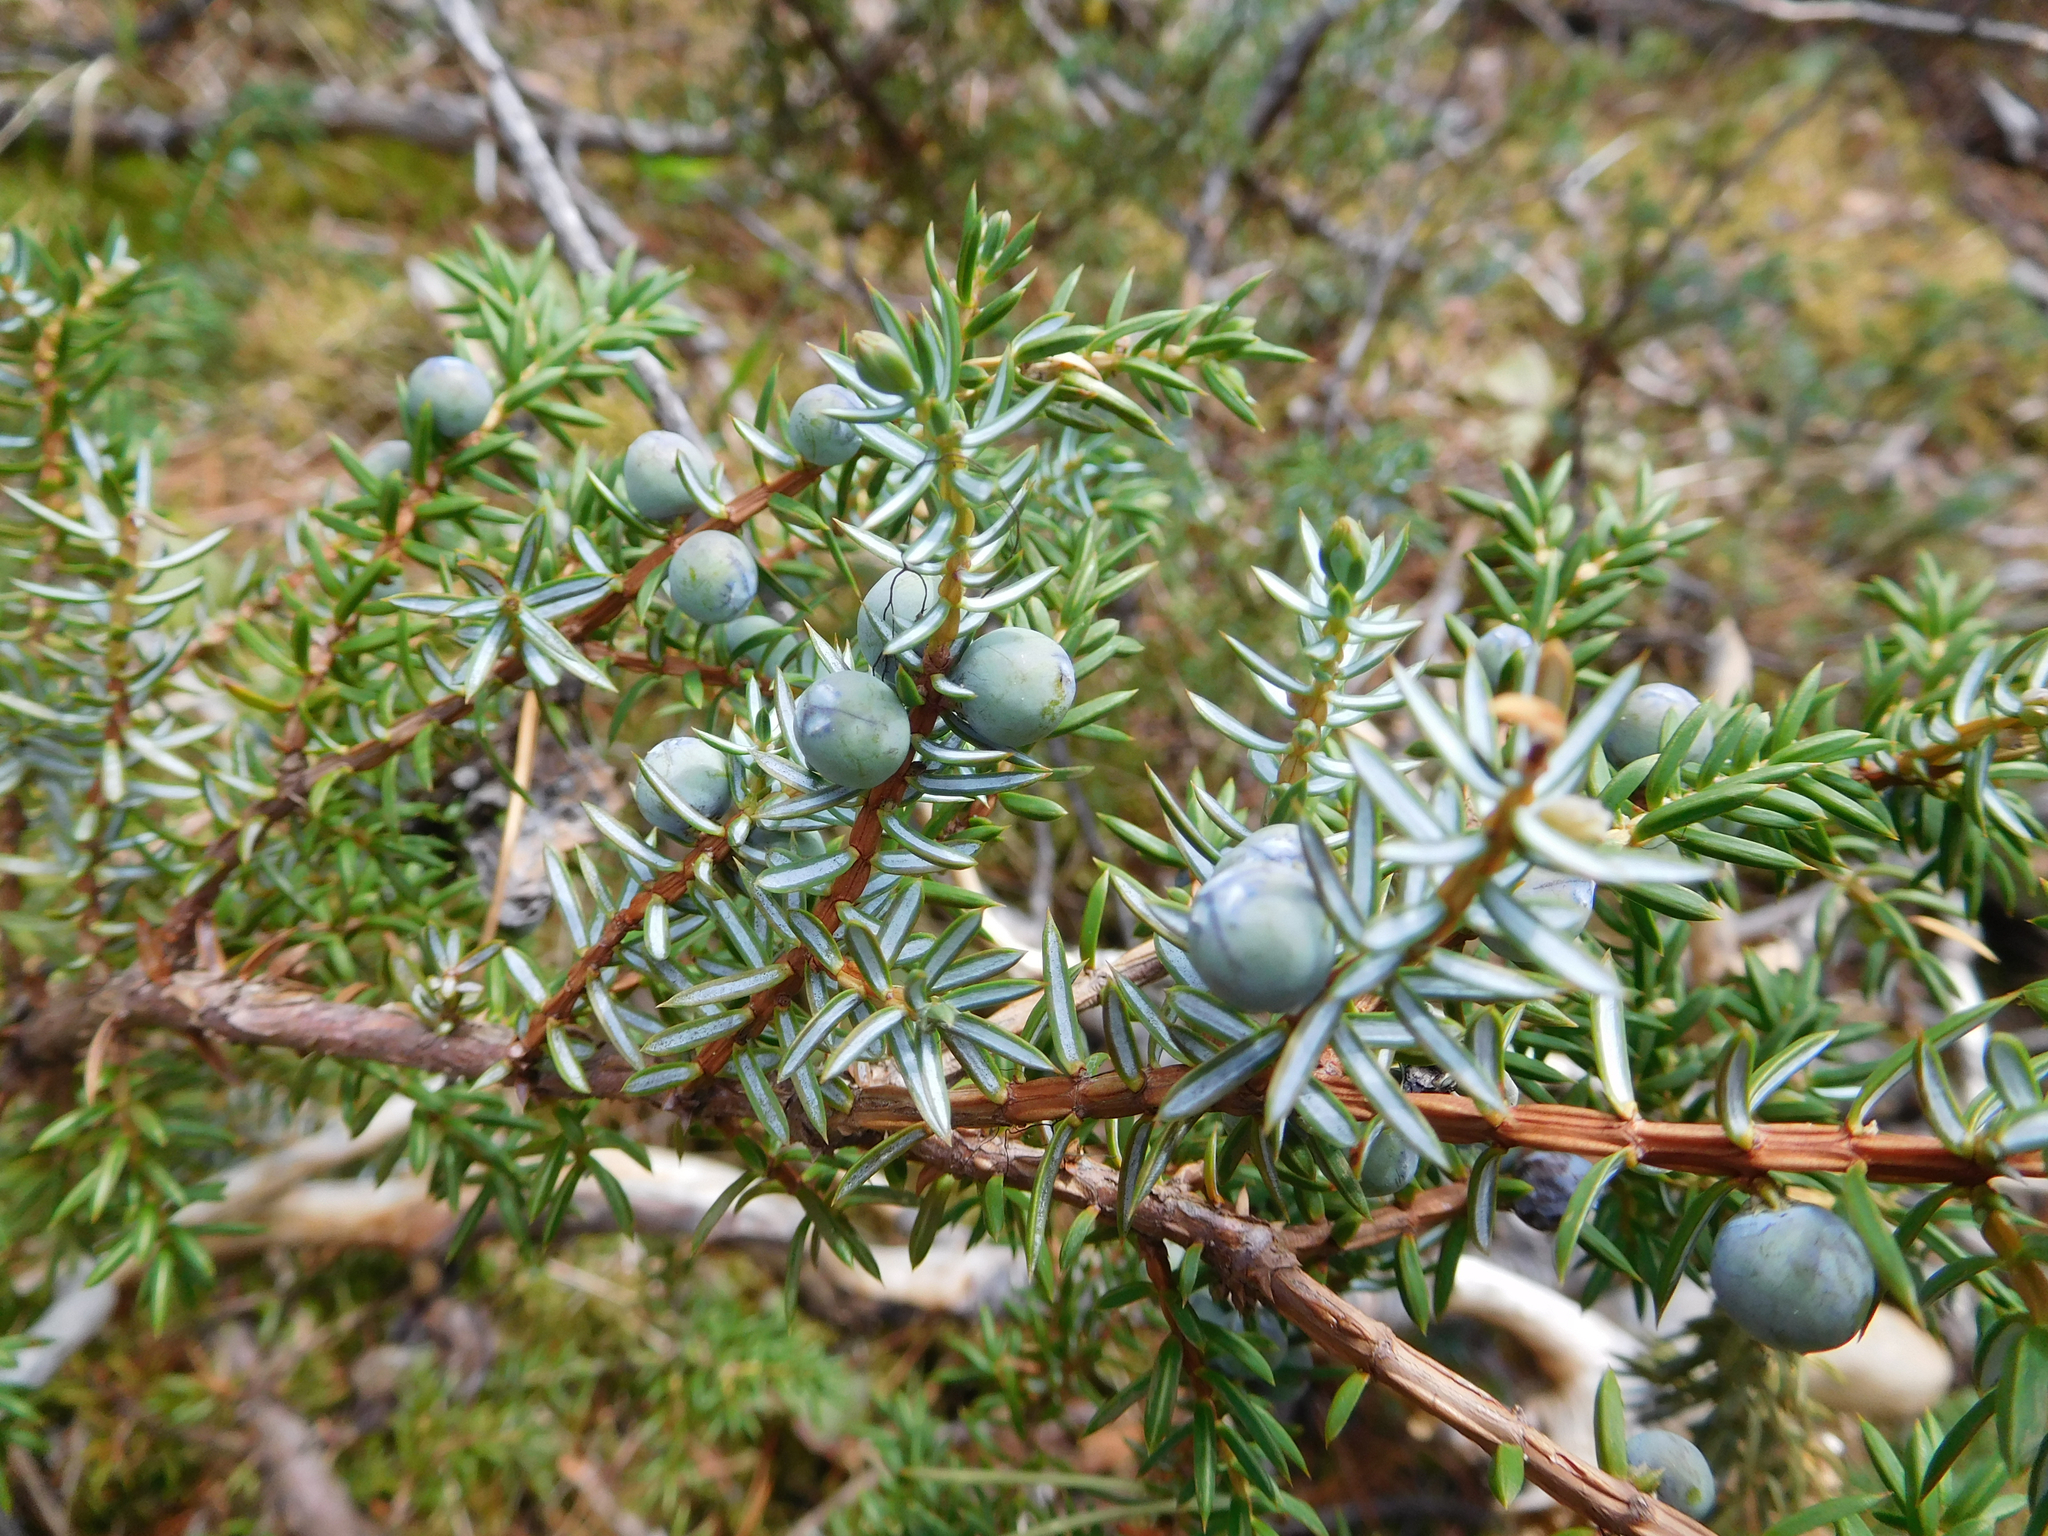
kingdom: Plantae
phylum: Tracheophyta
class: Pinopsida
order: Pinales
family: Cupressaceae
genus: Juniperus
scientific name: Juniperus communis
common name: Common juniper
